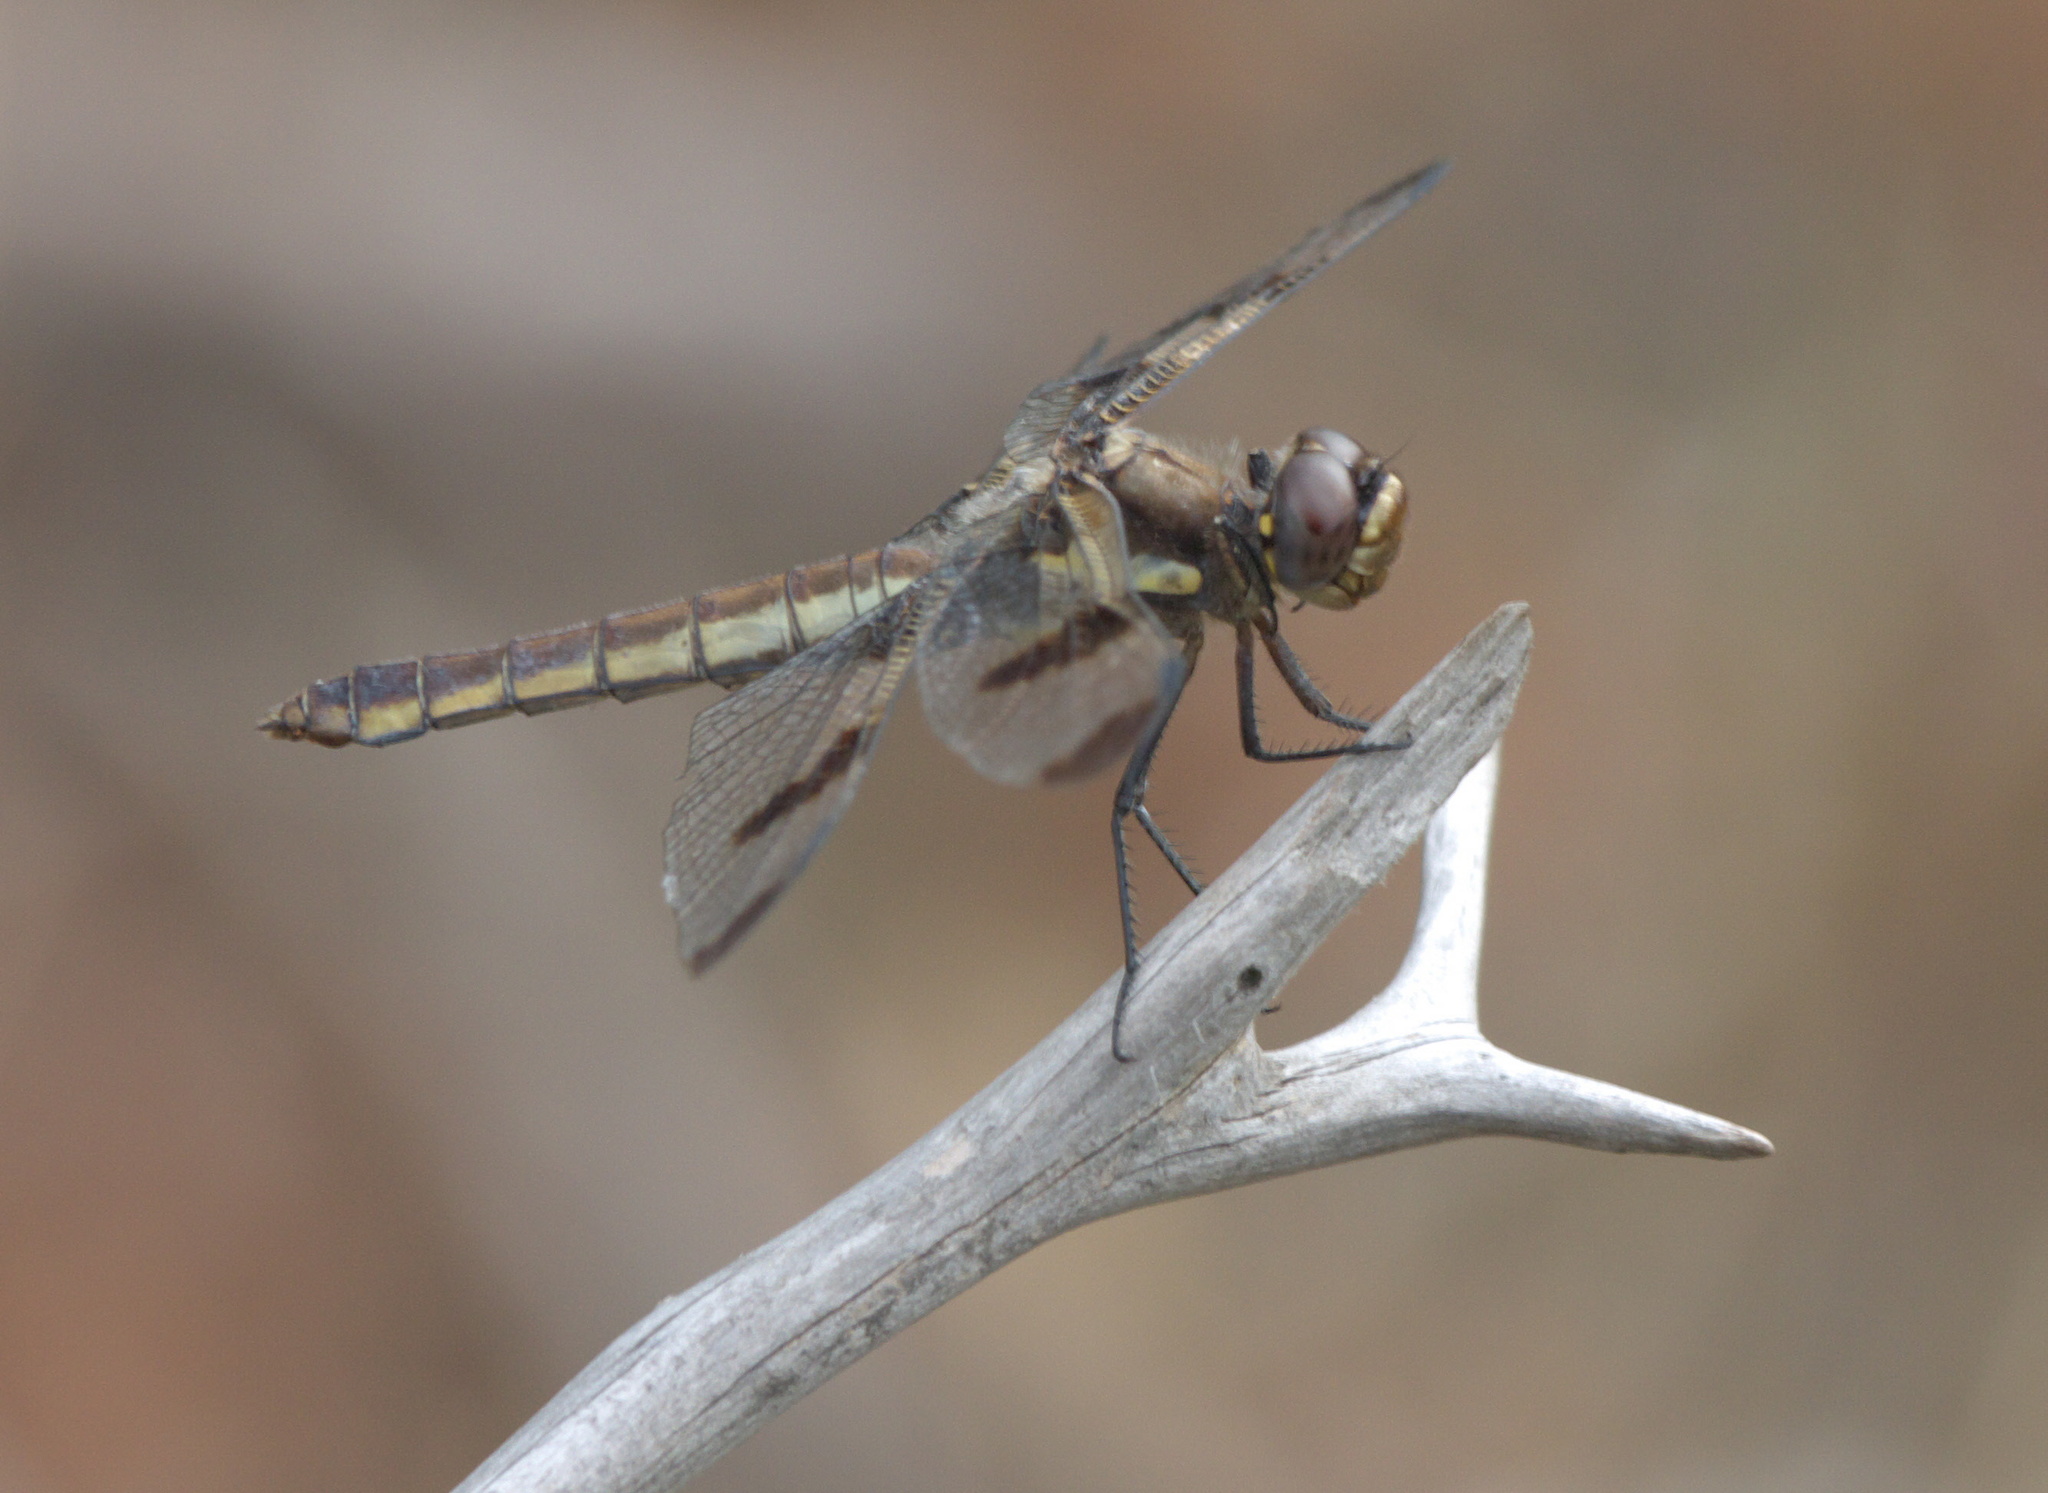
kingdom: Animalia
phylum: Arthropoda
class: Insecta
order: Odonata
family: Libellulidae
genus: Libellula
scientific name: Libellula pulchella
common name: Twelve-spotted skimmer
